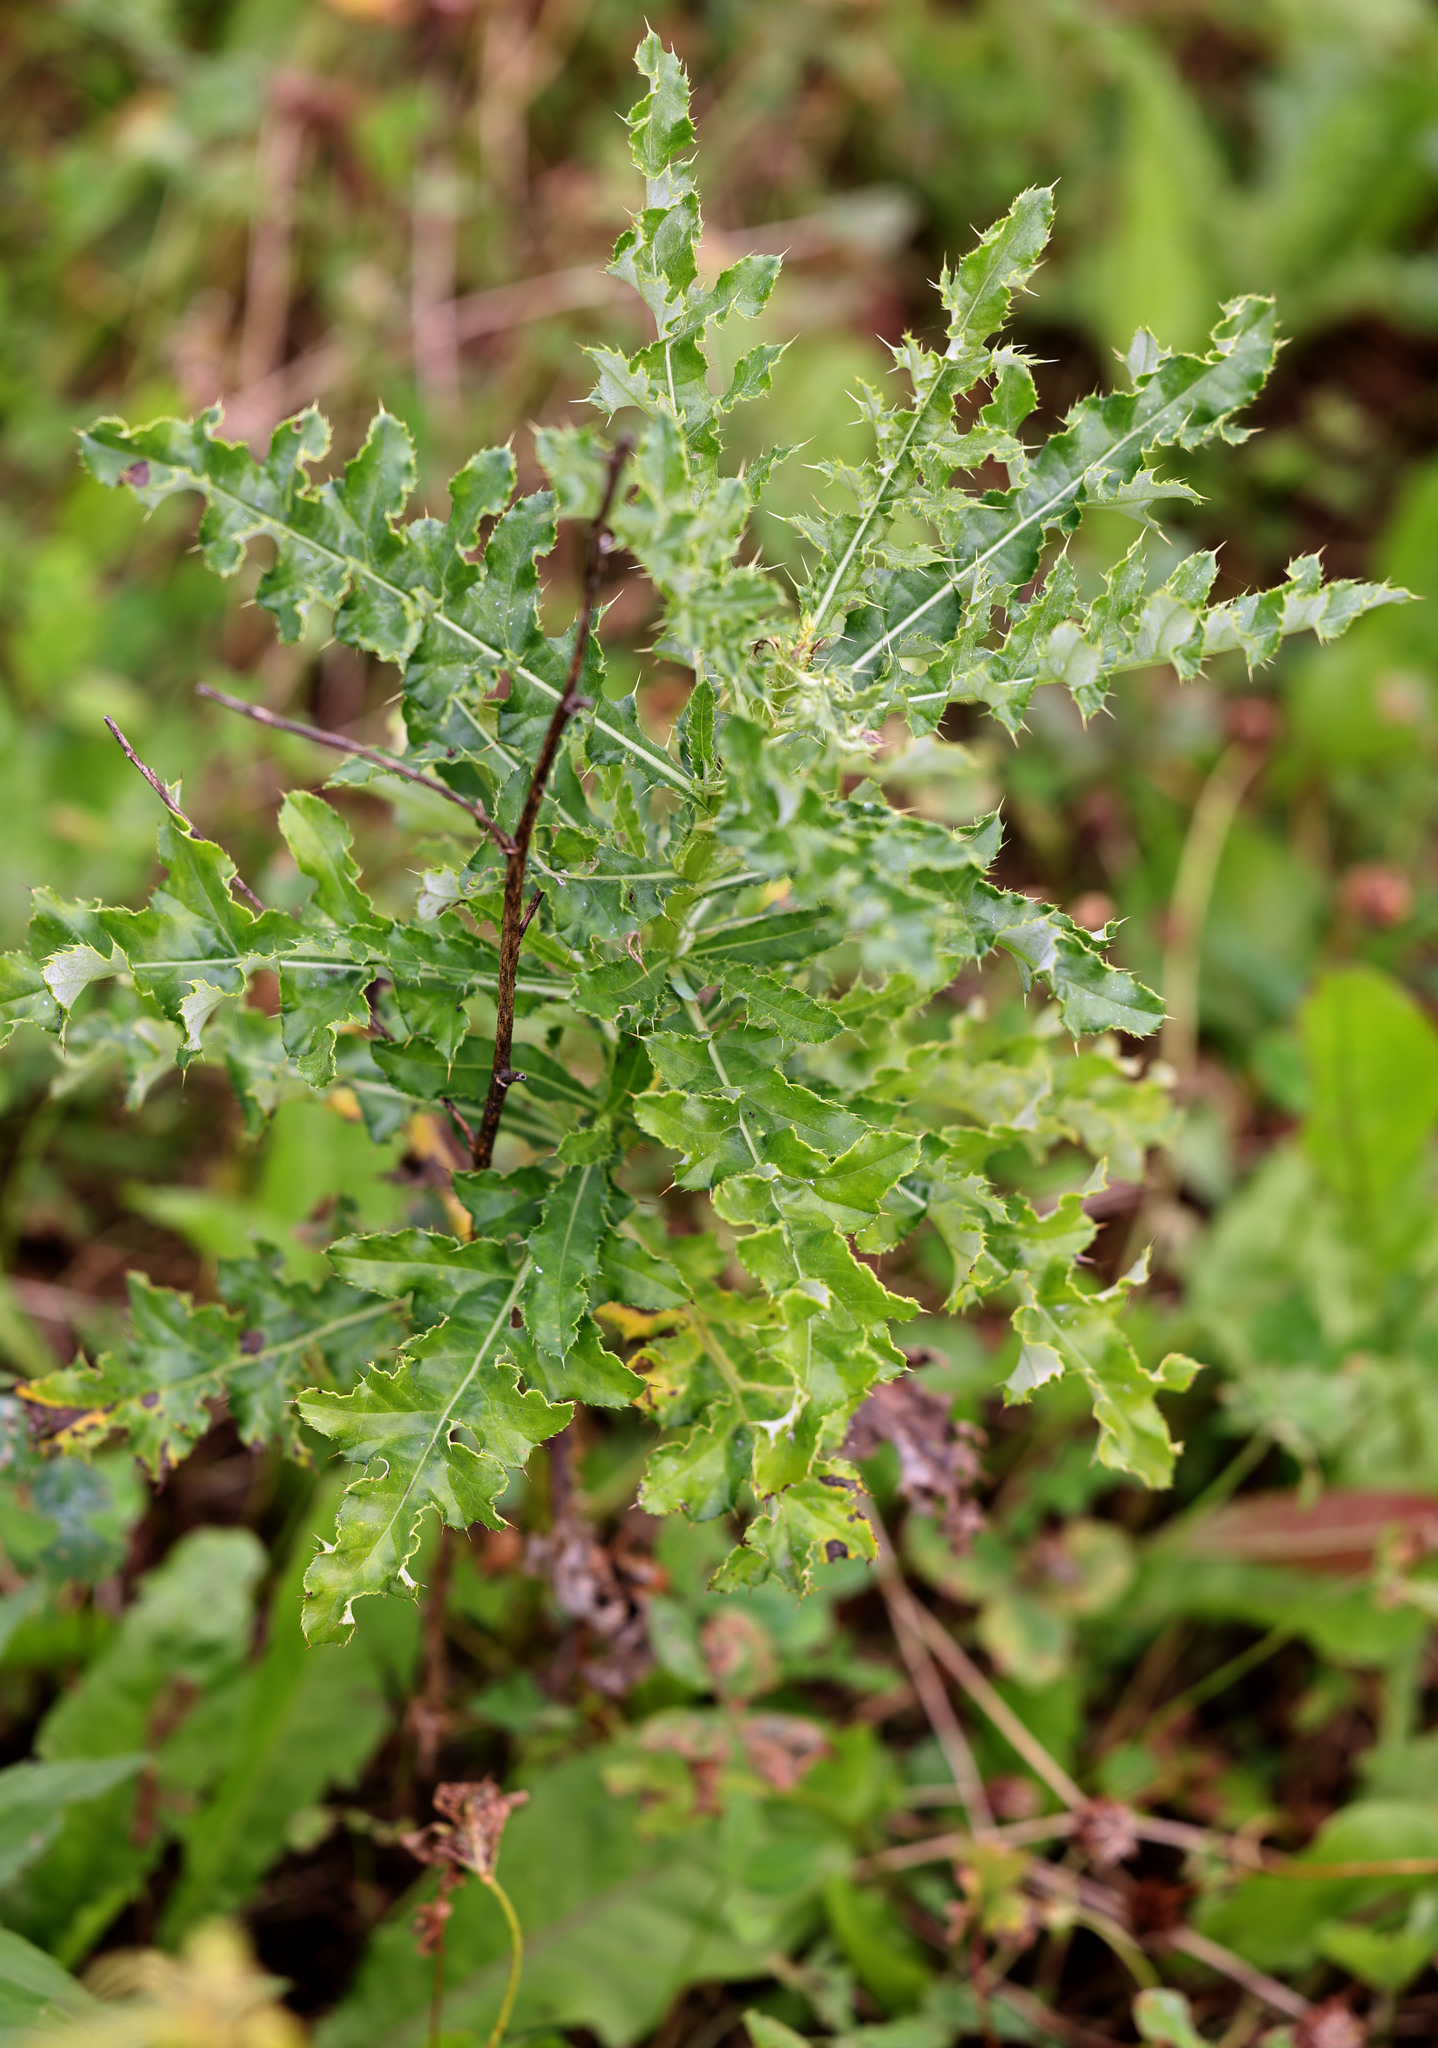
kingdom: Plantae
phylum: Tracheophyta
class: Magnoliopsida
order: Asterales
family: Asteraceae
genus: Cirsium
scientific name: Cirsium arvense
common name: Creeping thistle
